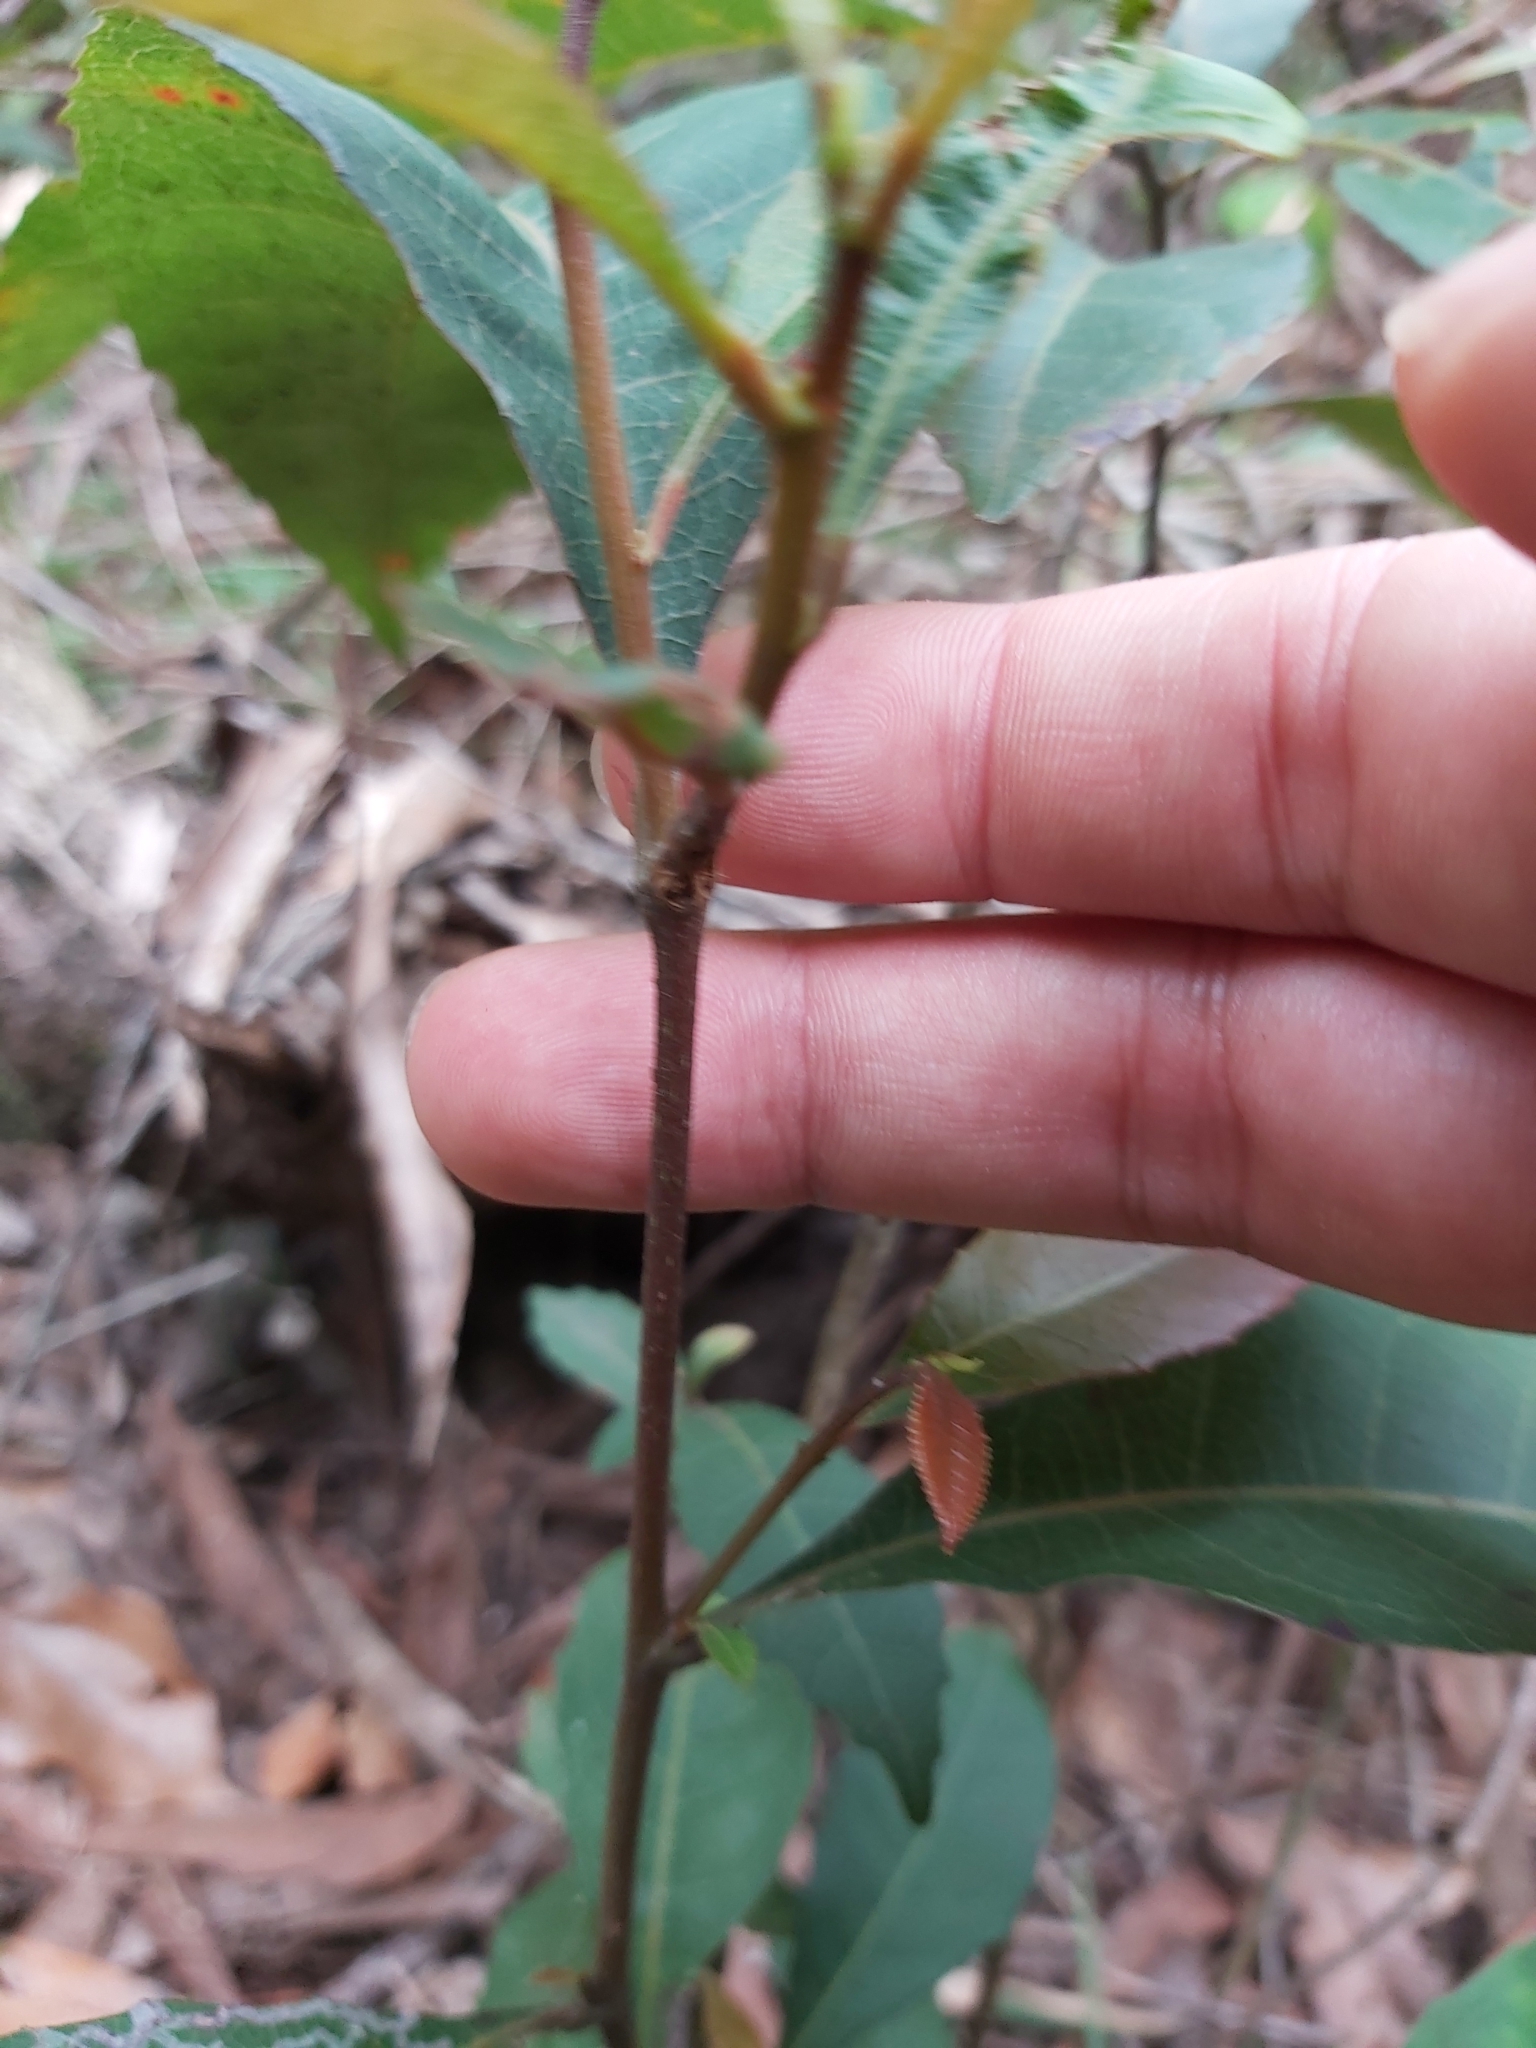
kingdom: Plantae
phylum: Tracheophyta
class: Magnoliopsida
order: Oxalidales
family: Elaeocarpaceae
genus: Elaeocarpus
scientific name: Elaeocarpus reticulatus
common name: Ash quandong
